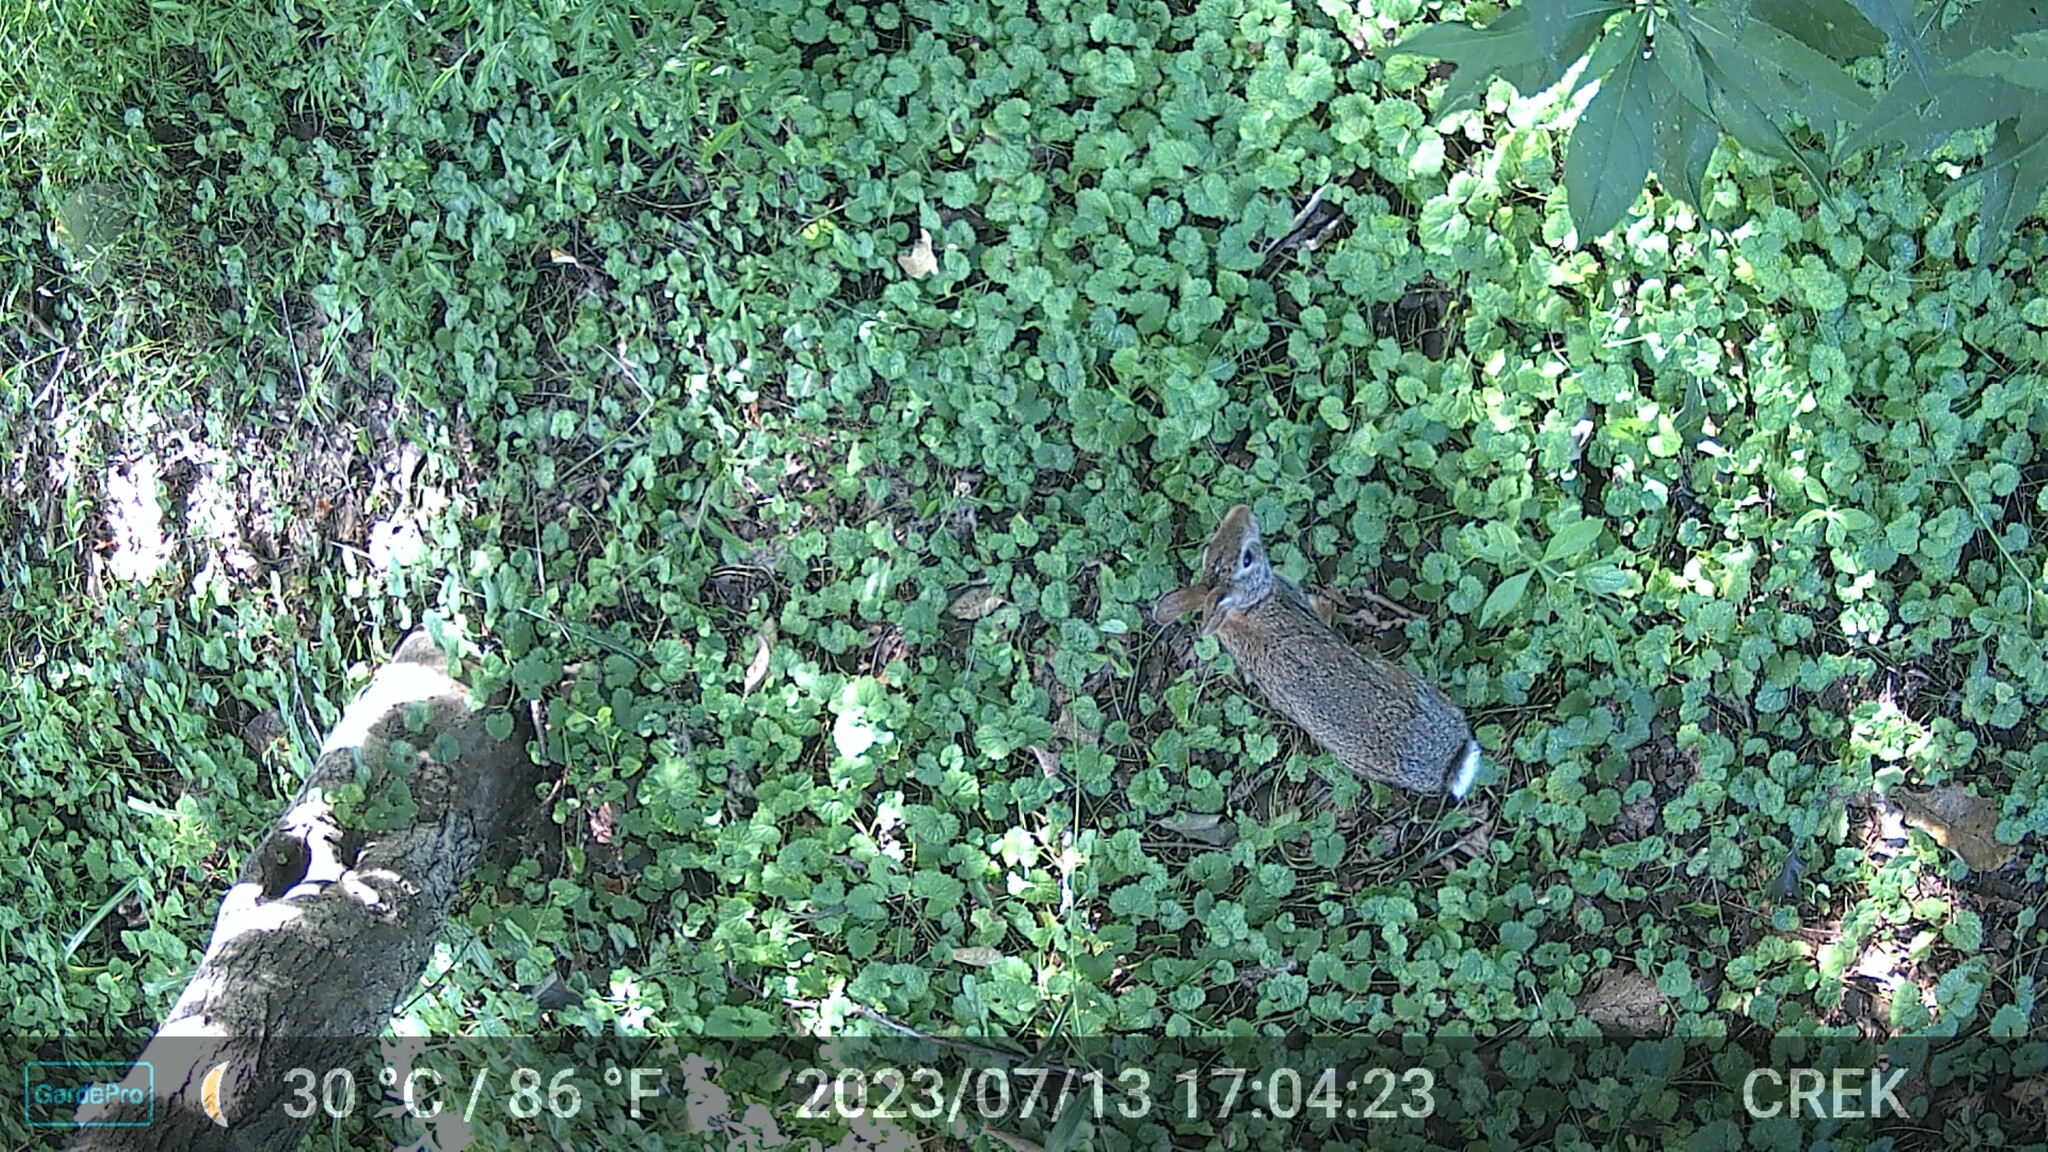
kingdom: Animalia
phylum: Chordata
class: Mammalia
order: Lagomorpha
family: Leporidae
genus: Sylvilagus
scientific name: Sylvilagus floridanus
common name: Eastern cottontail
